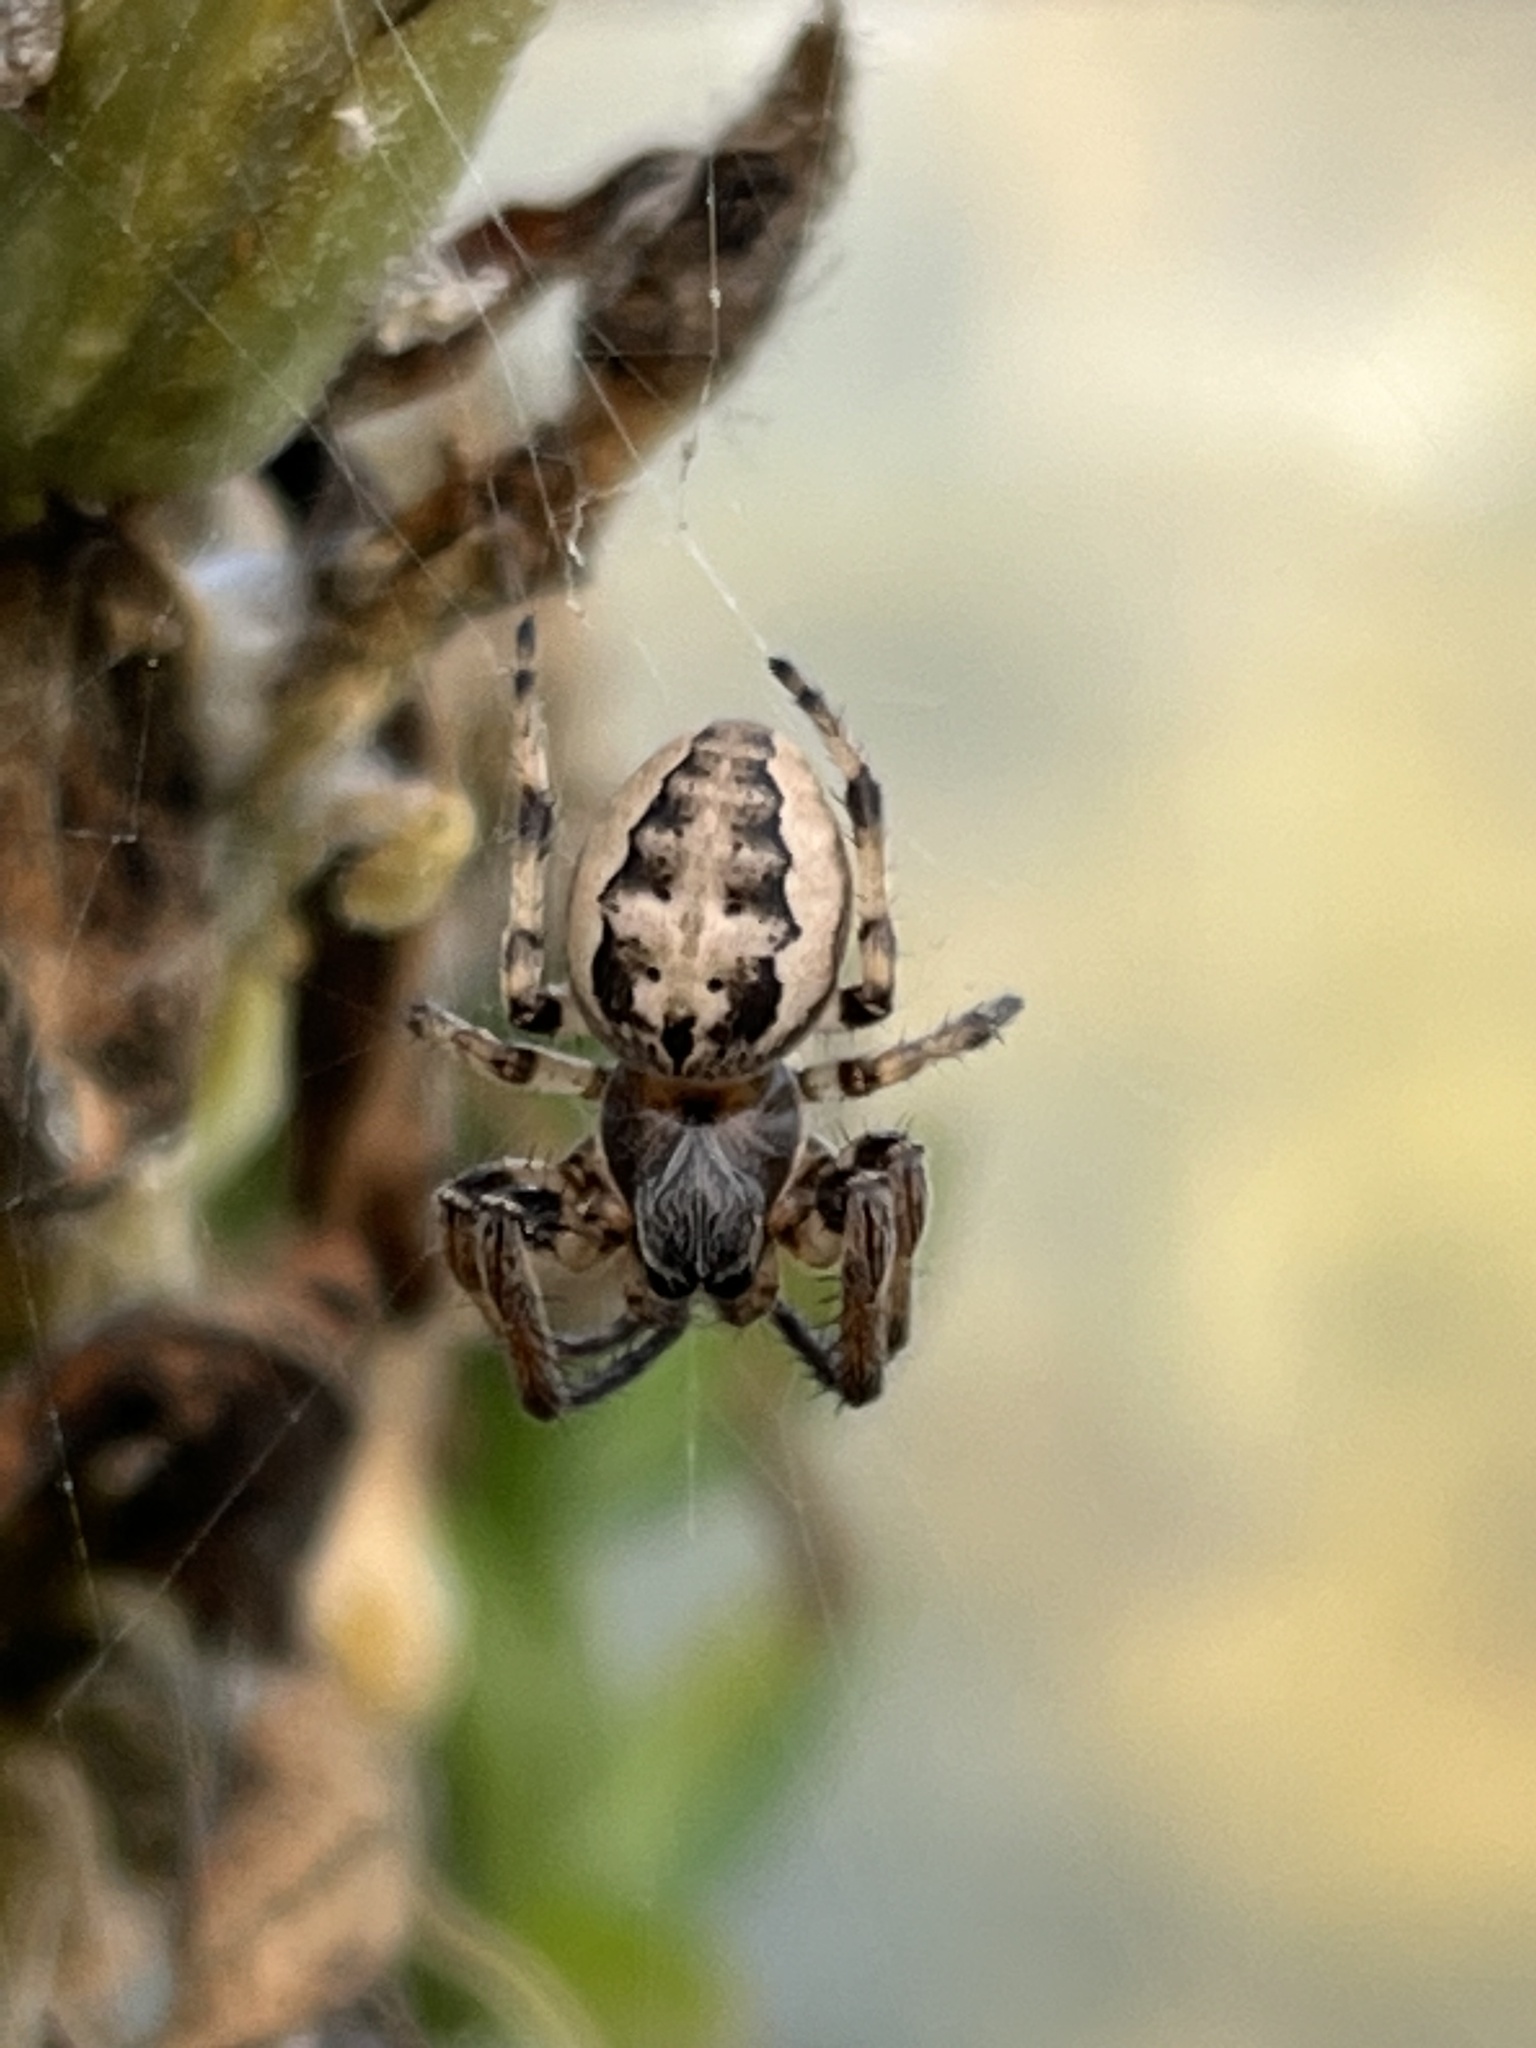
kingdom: Animalia
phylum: Arthropoda
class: Arachnida
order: Araneae
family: Araneidae
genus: Larinioides
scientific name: Larinioides cornutus
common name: Furrow orbweaver
